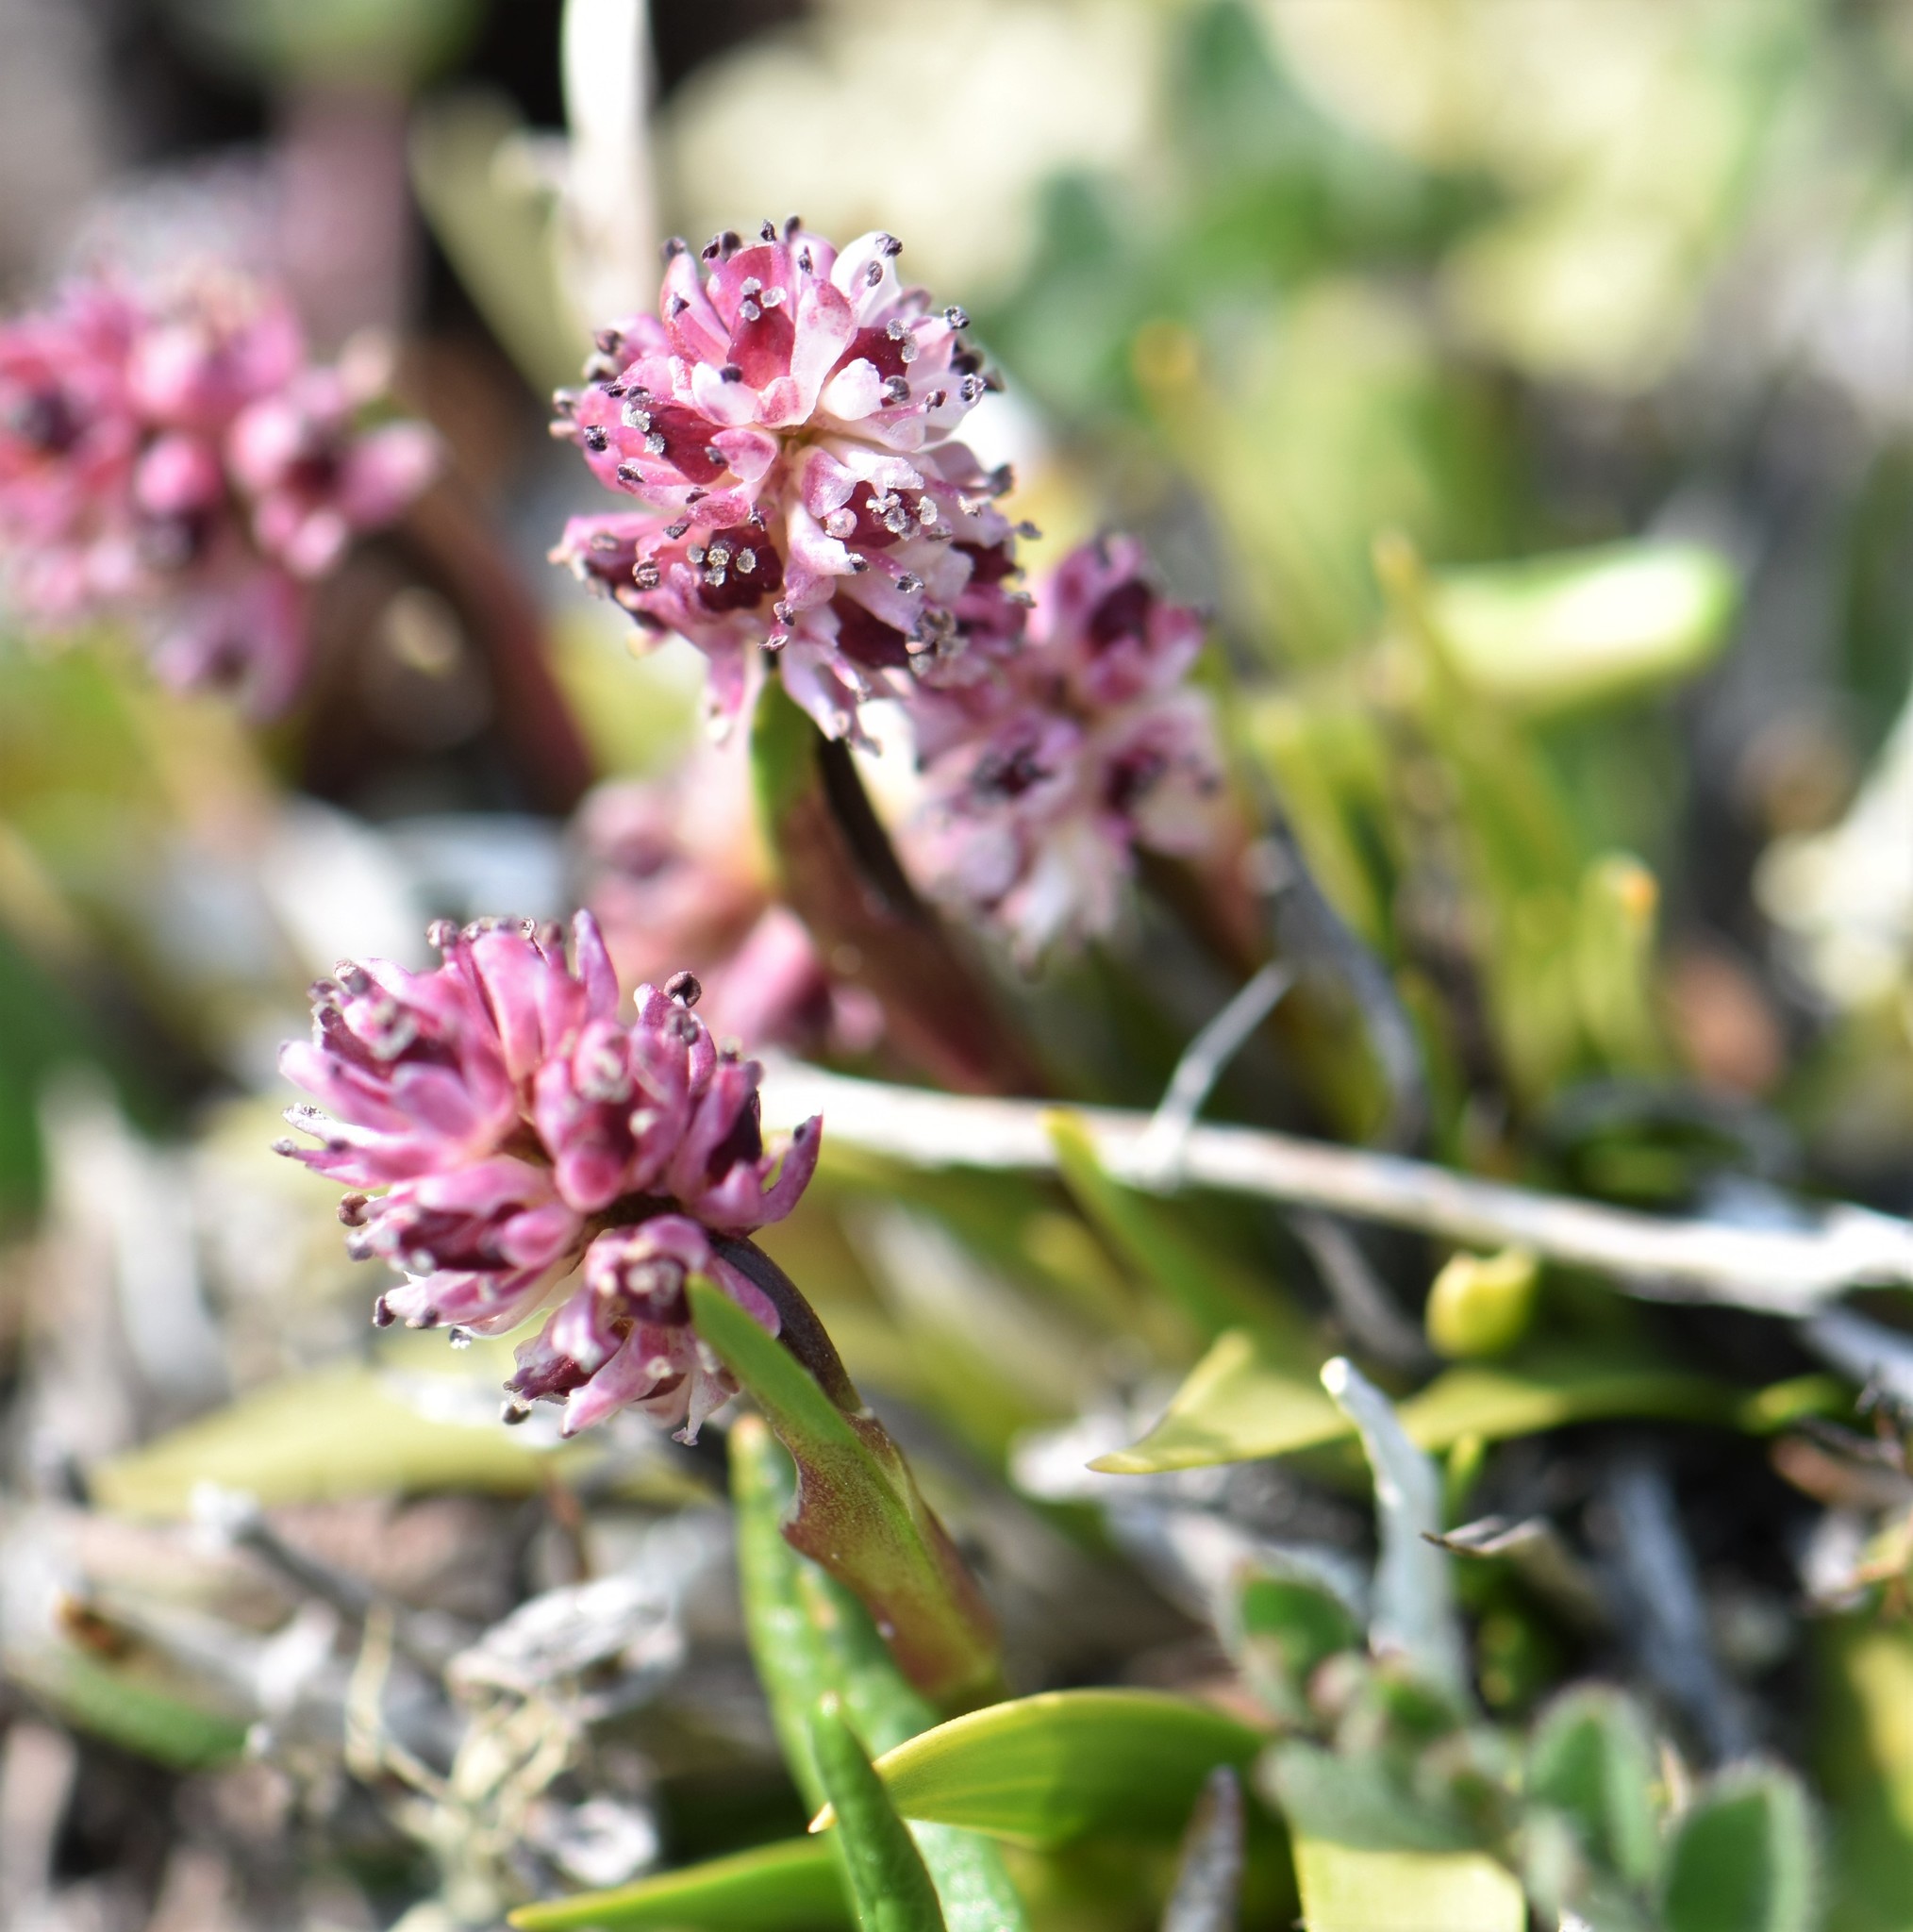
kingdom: Plantae
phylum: Tracheophyta
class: Liliopsida
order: Alismatales
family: Tofieldiaceae
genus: Tofieldia
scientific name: Tofieldia coccinea
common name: Northern false asphodel
